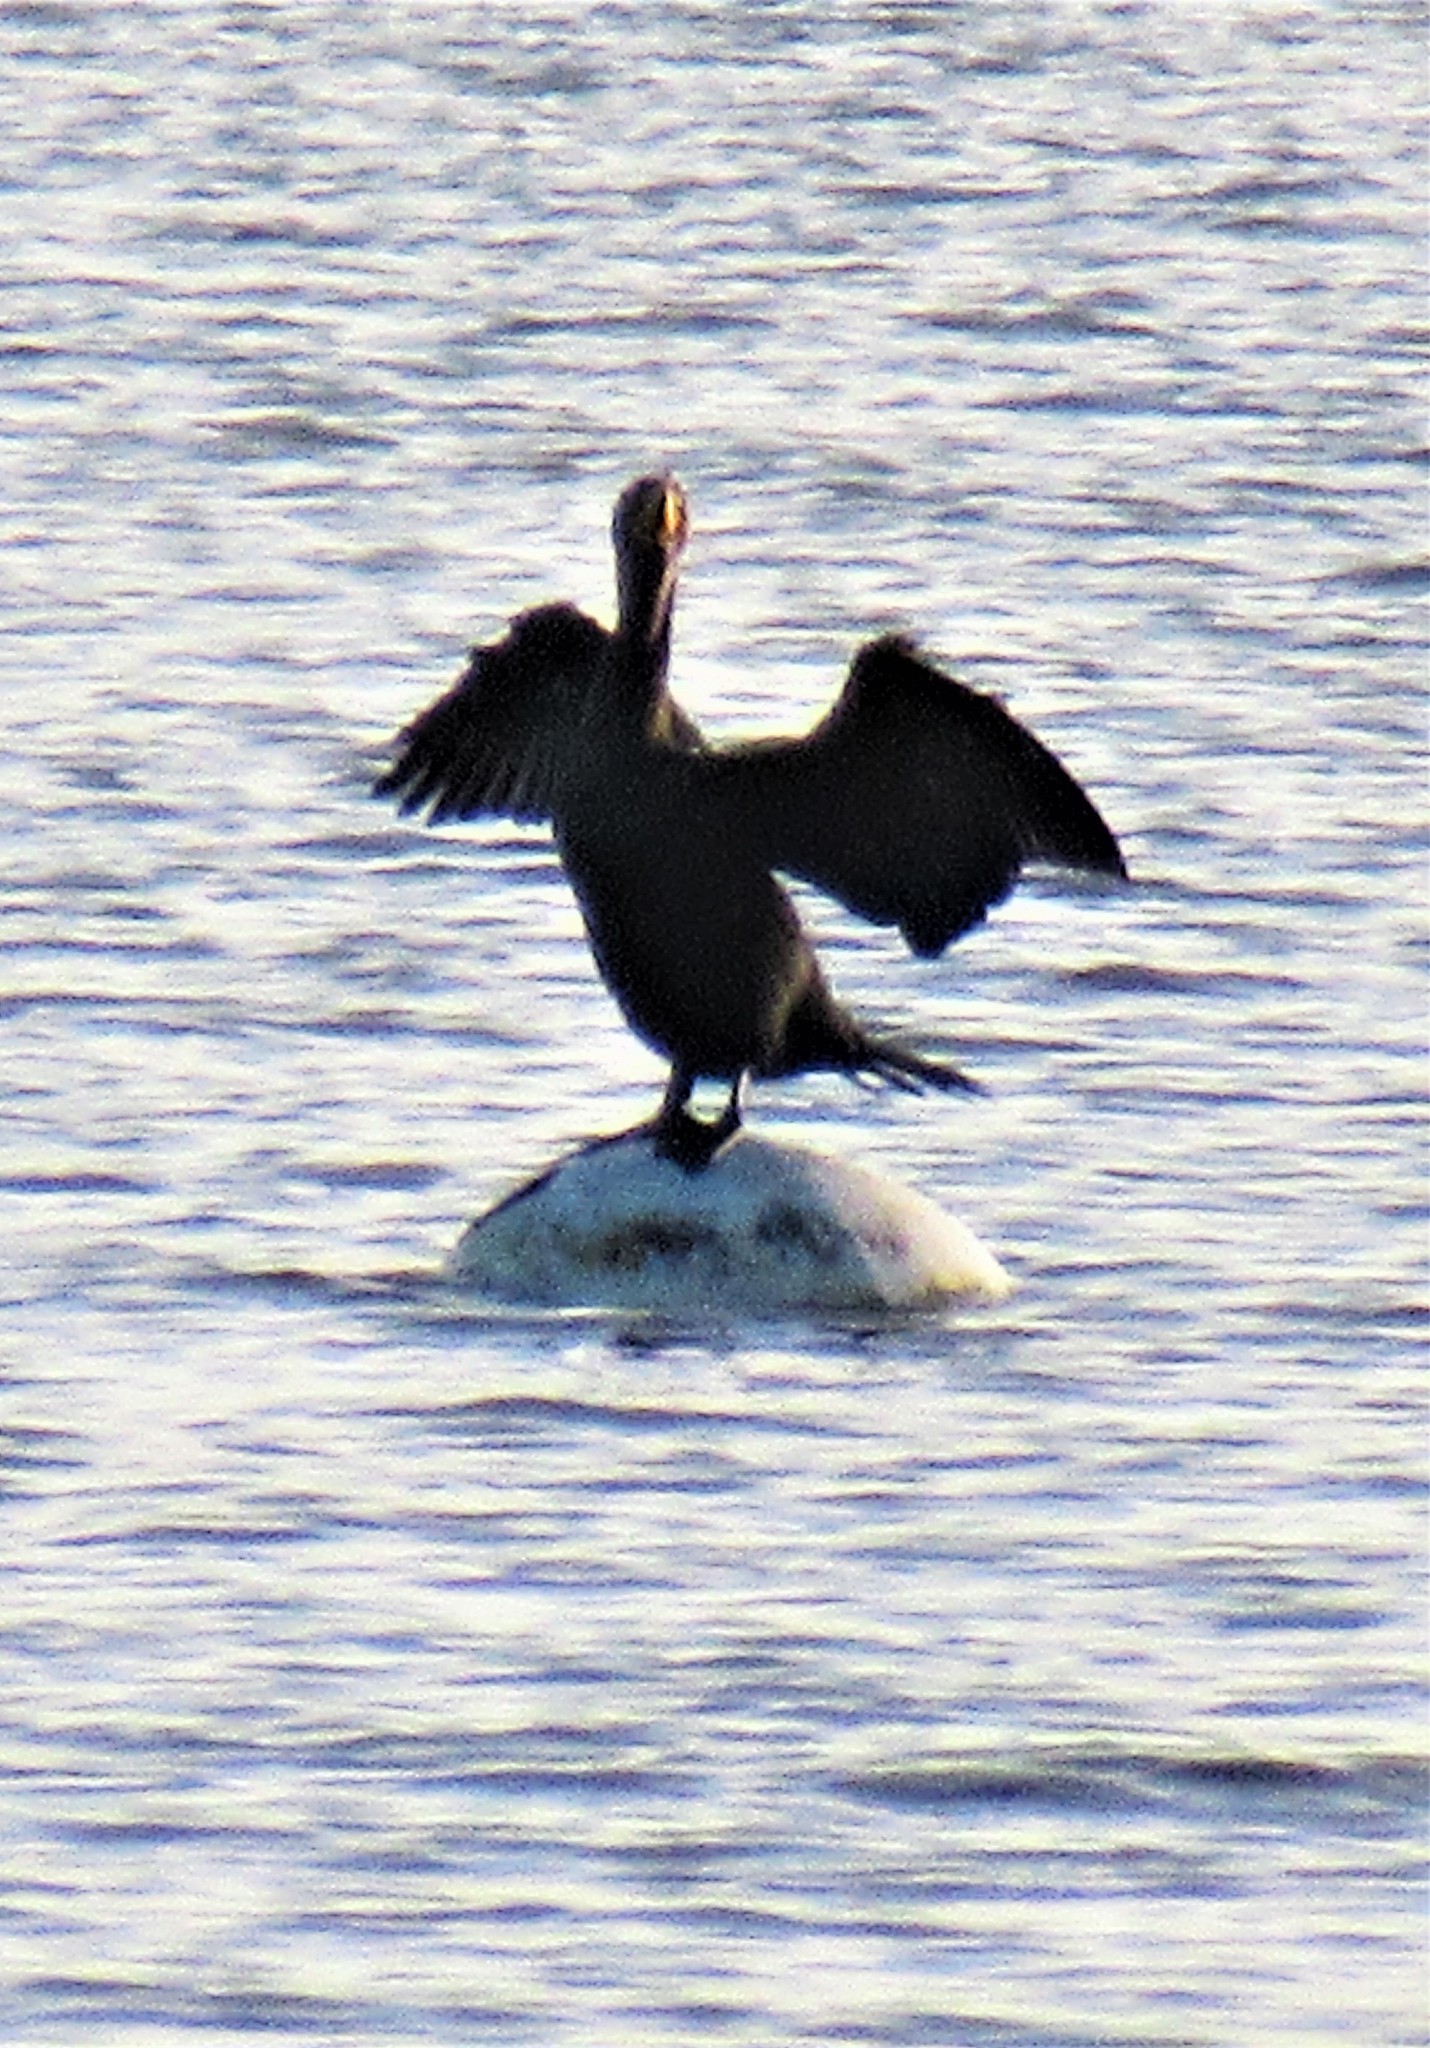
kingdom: Animalia
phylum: Chordata
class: Aves
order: Suliformes
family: Phalacrocoracidae
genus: Phalacrocorax
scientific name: Phalacrocorax auritus
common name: Double-crested cormorant
